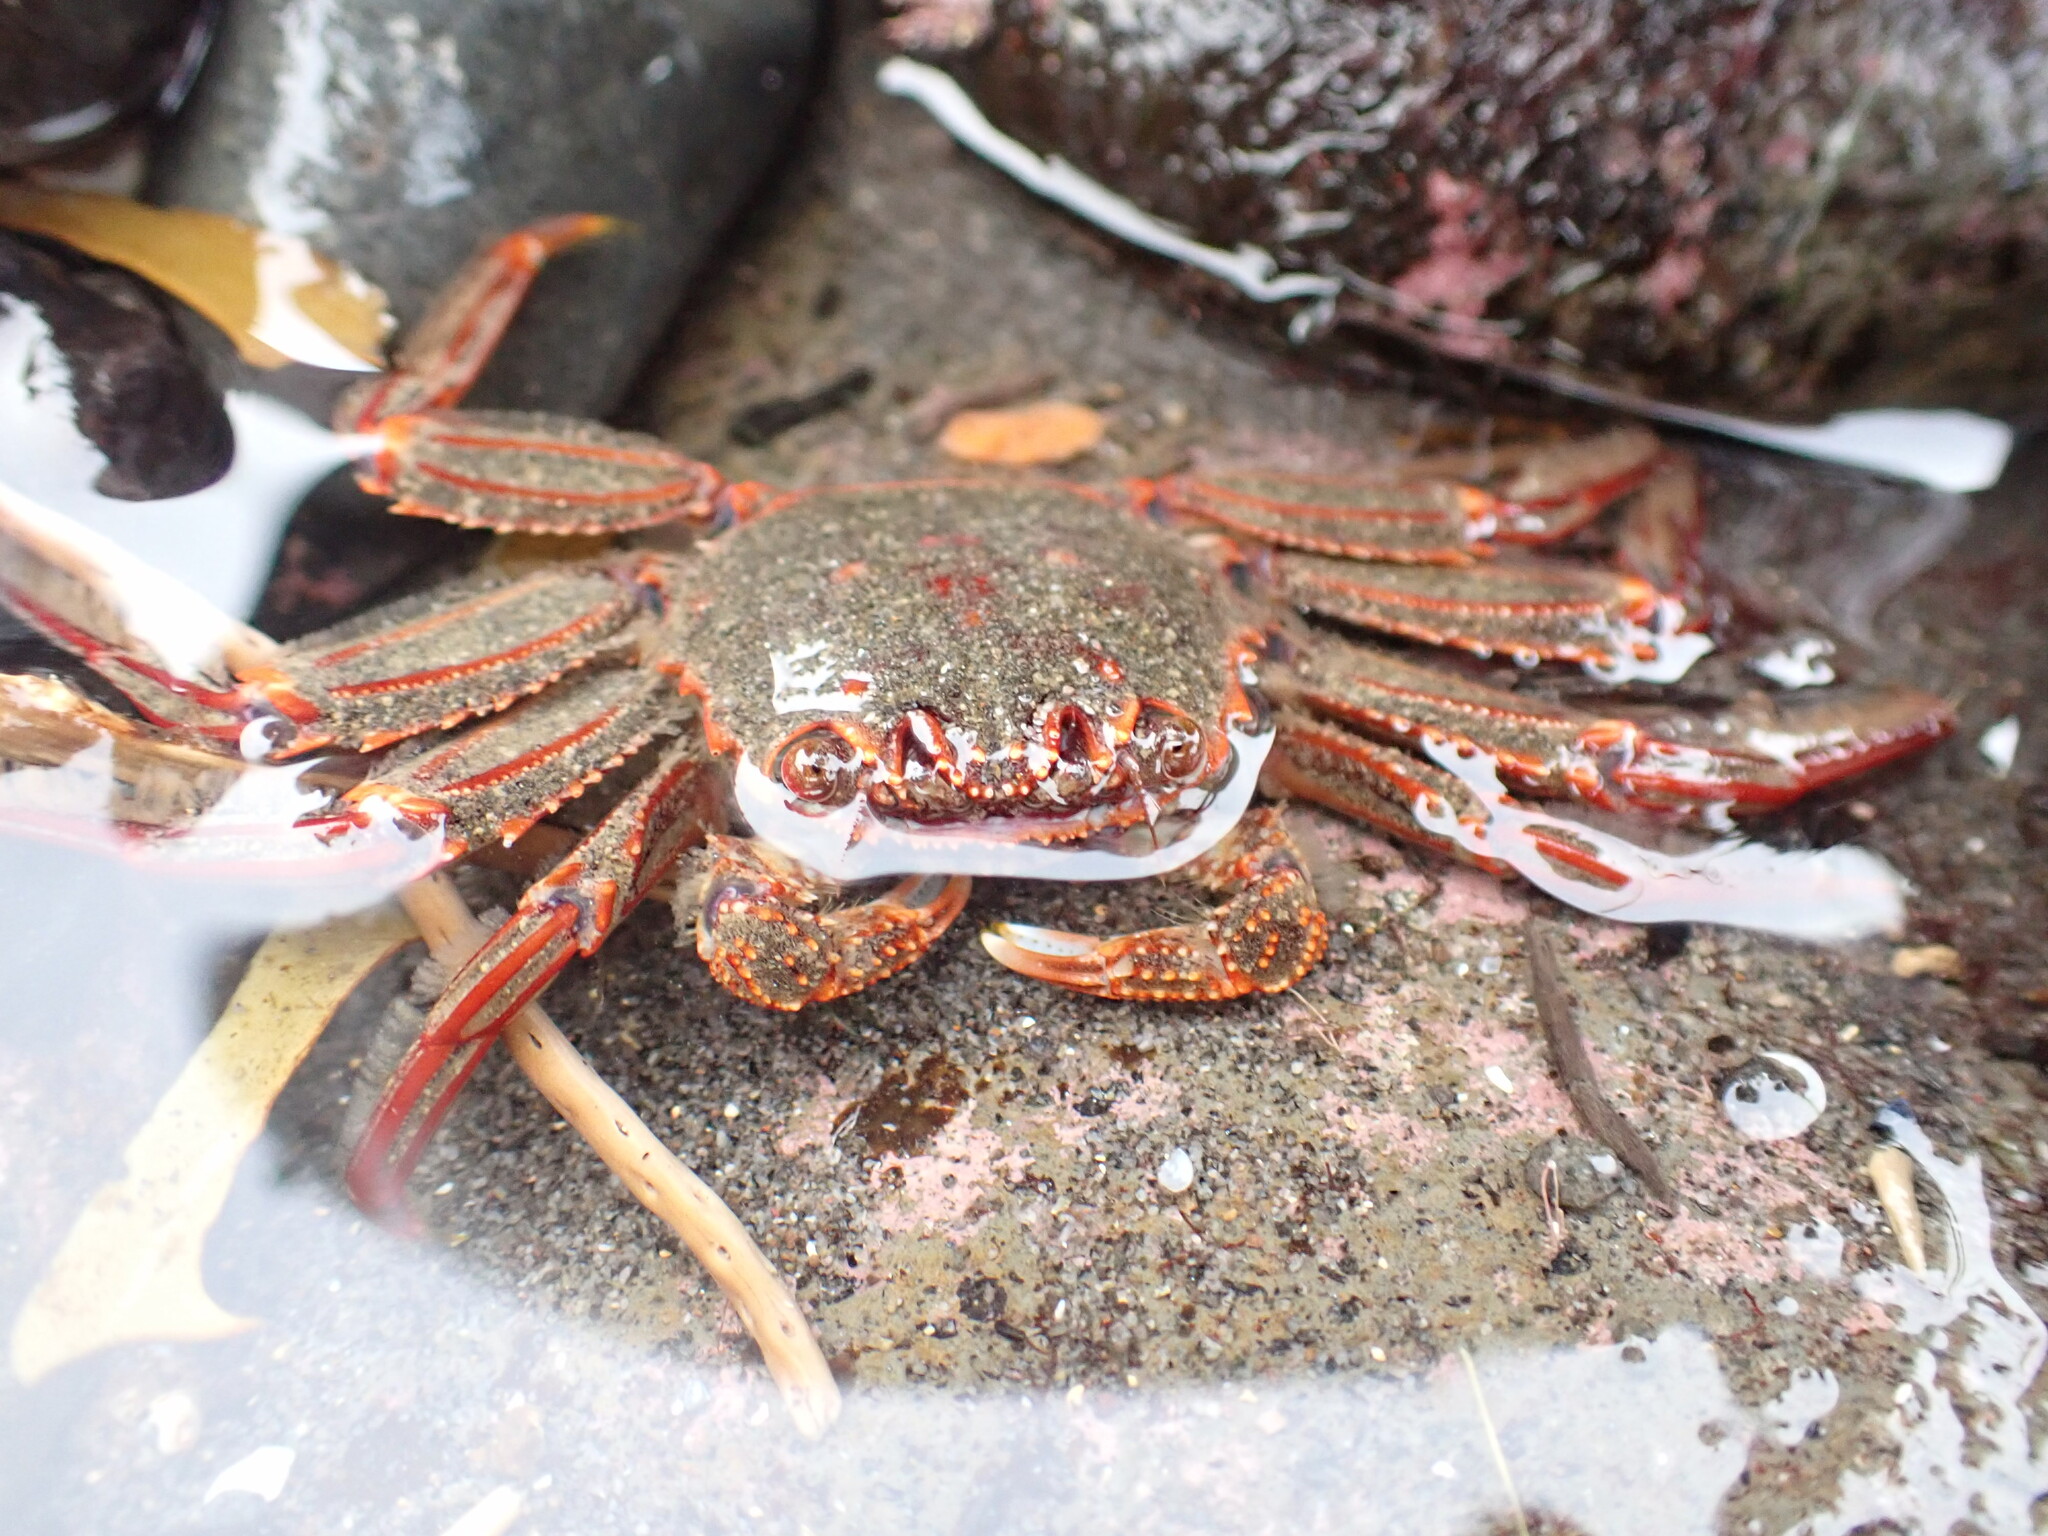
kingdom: Animalia
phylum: Arthropoda
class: Malacostraca
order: Decapoda
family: Plagusiidae
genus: Guinusia
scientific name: Guinusia chabrus
